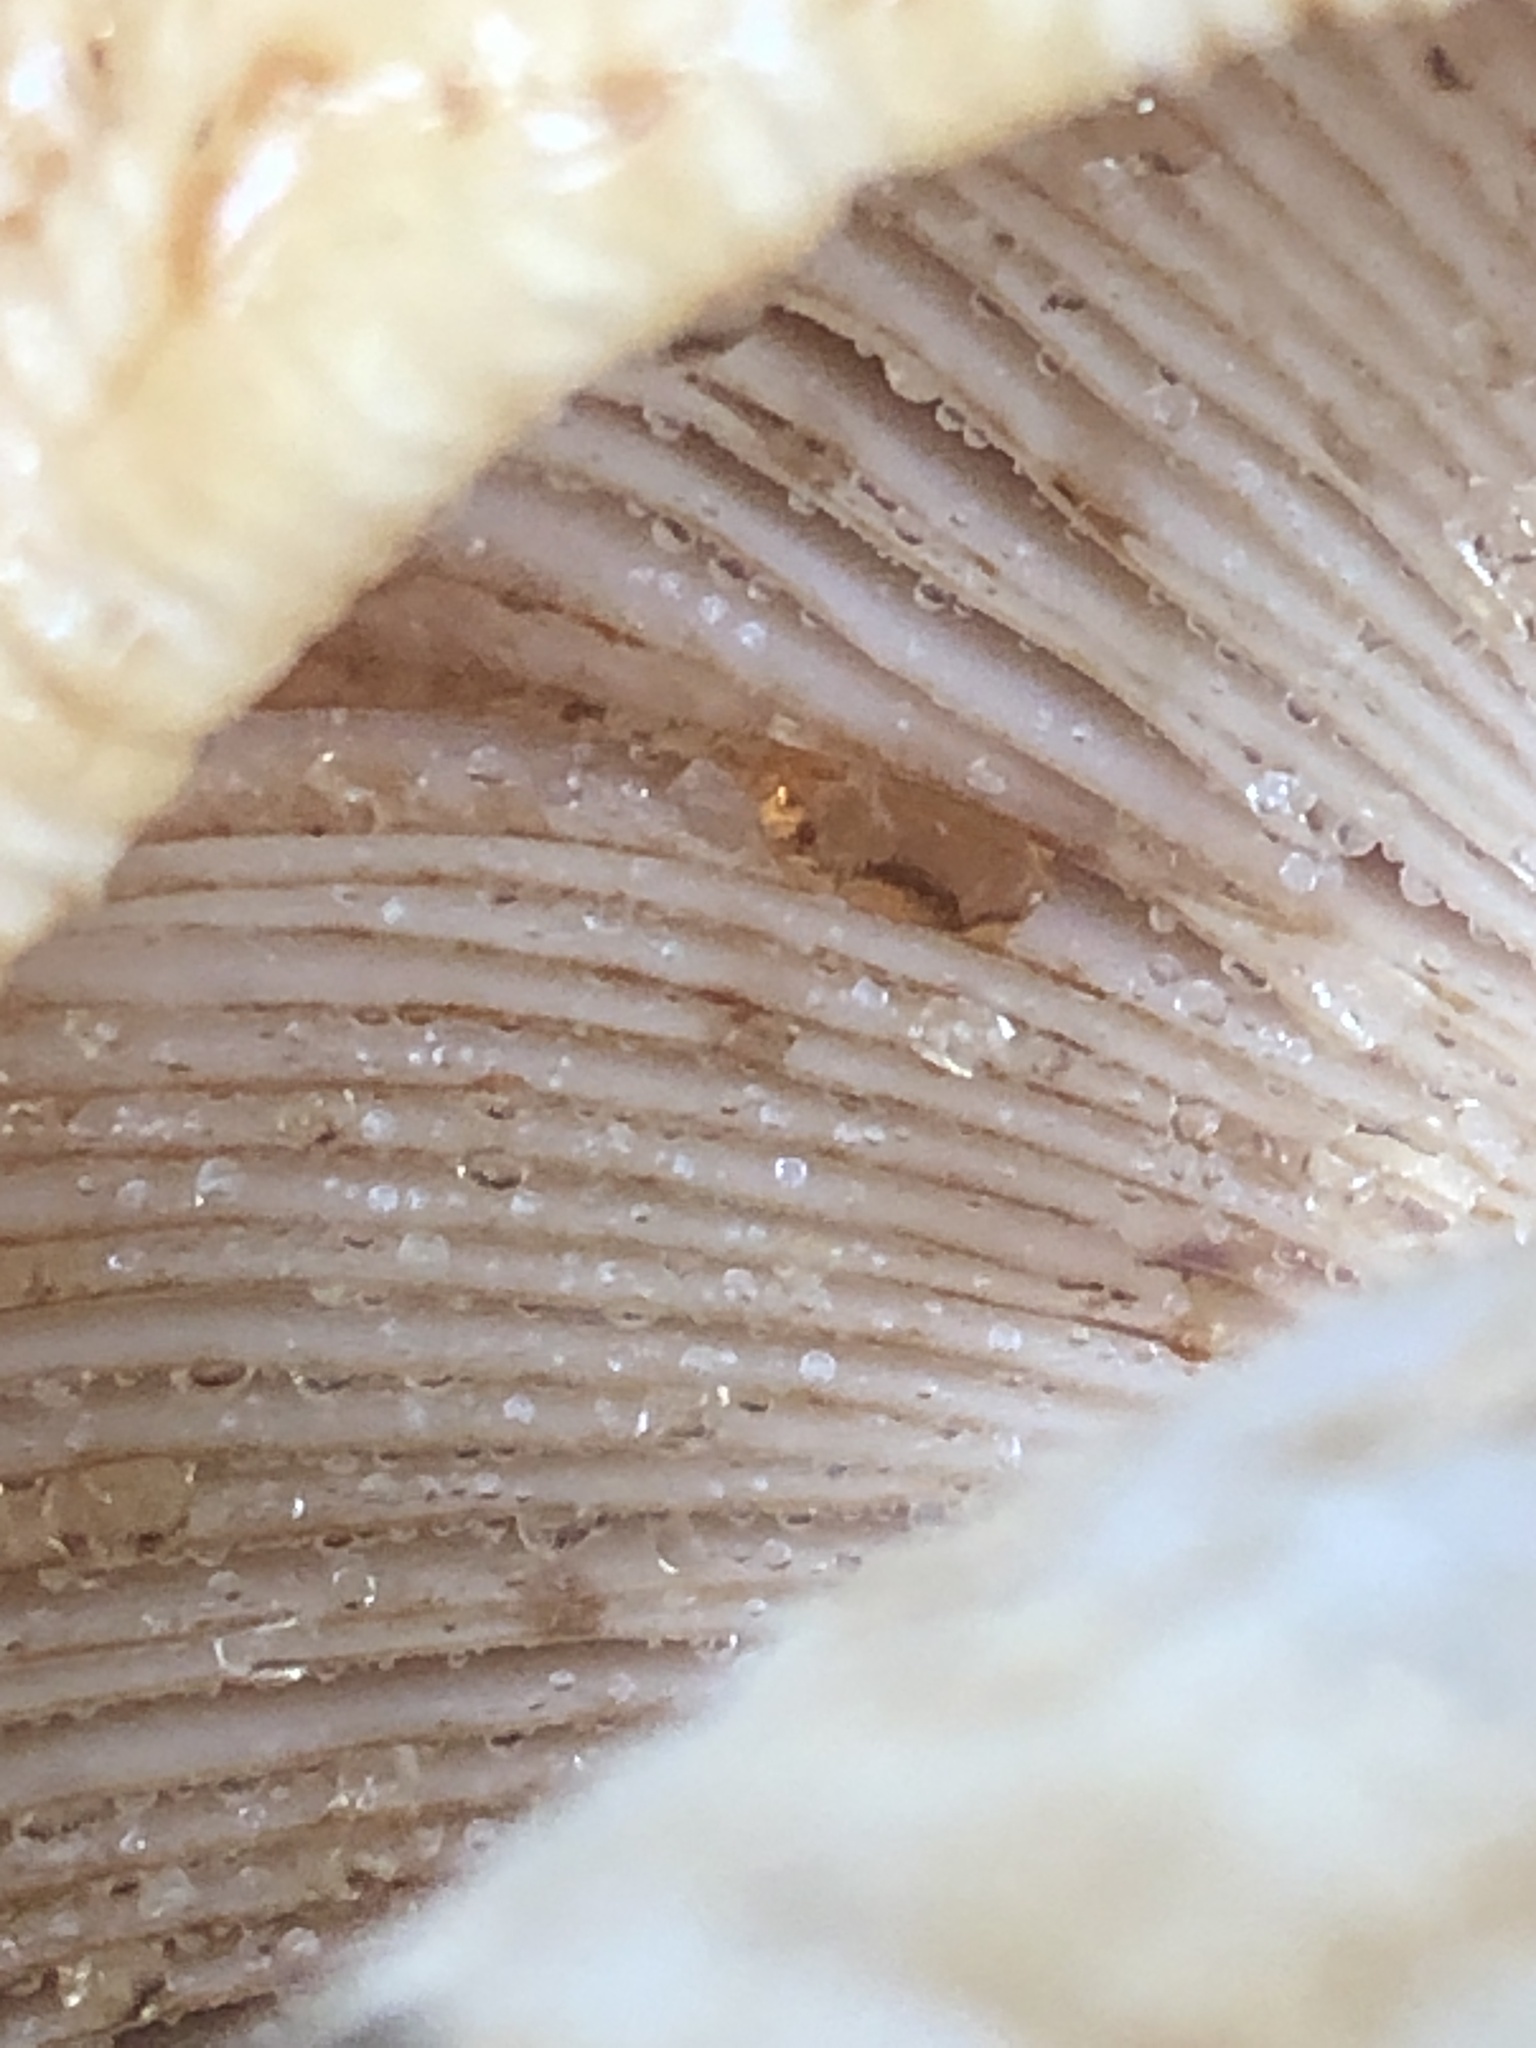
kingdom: Fungi
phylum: Basidiomycota
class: Agaricomycetes
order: Russulales
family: Russulaceae
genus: Russula
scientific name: Russula
